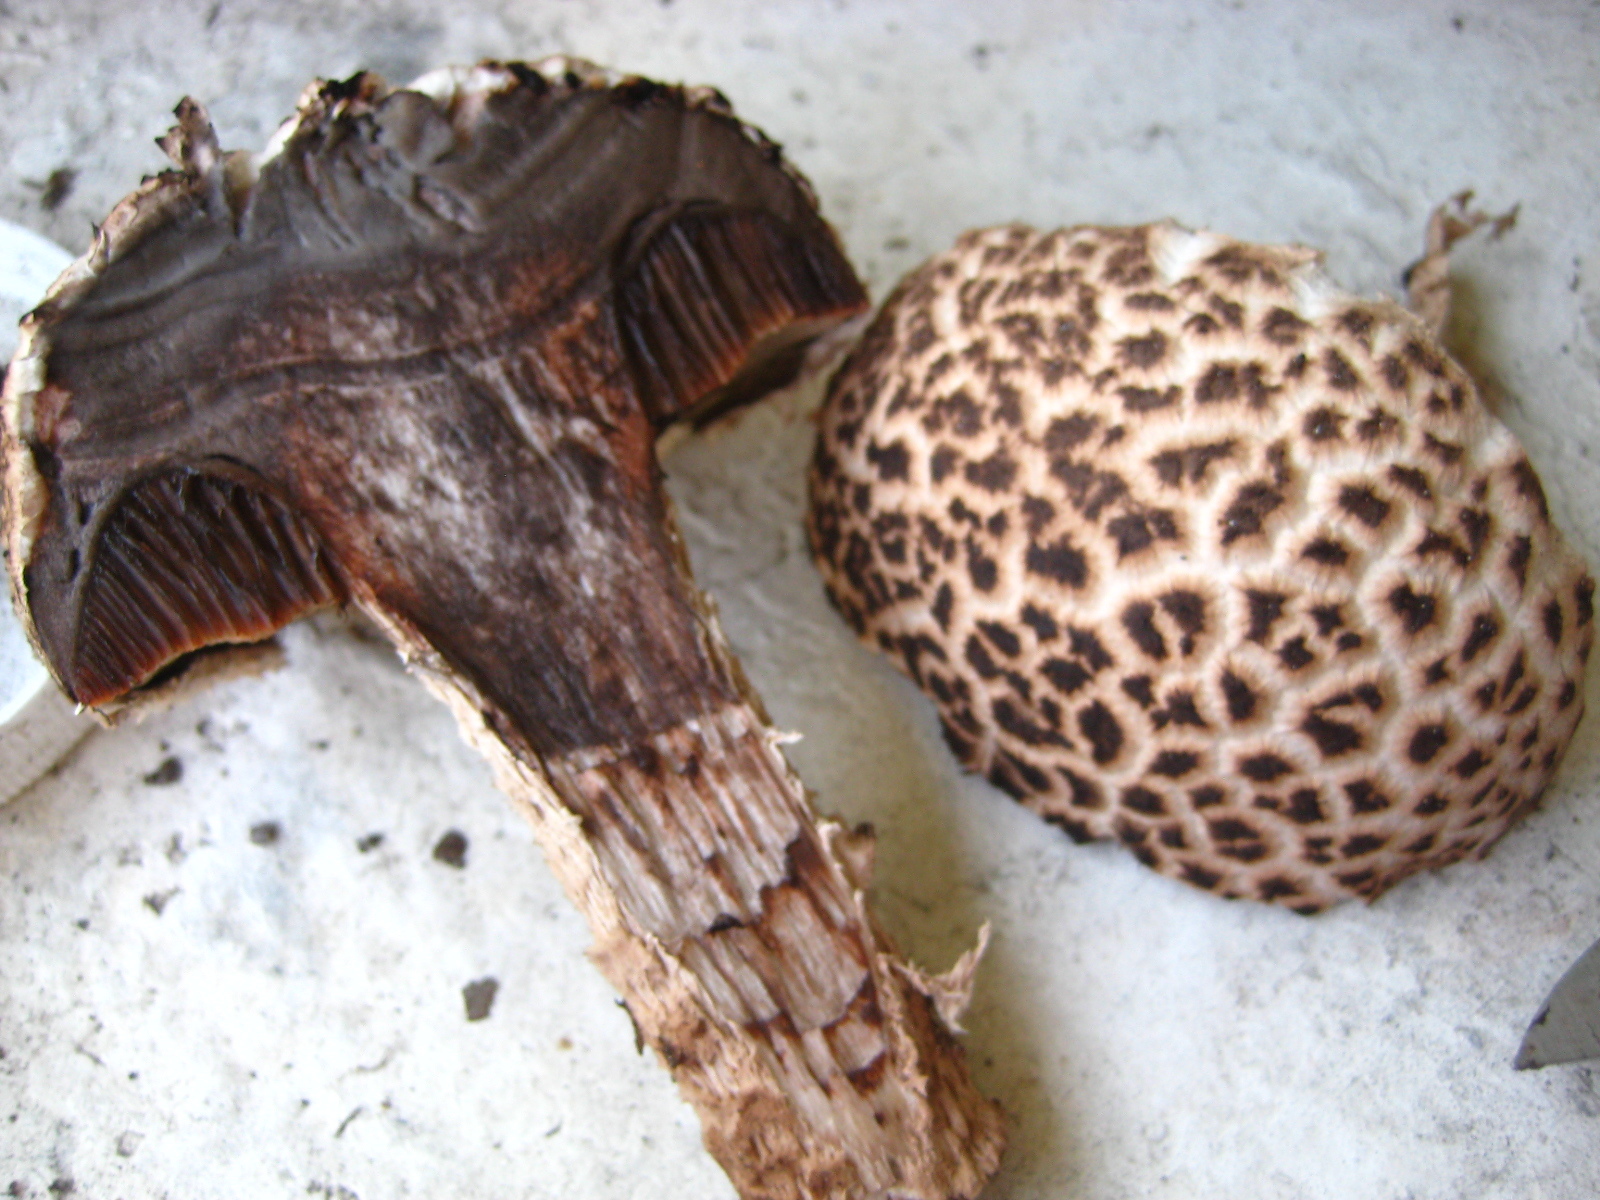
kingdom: Fungi
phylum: Basidiomycota
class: Agaricomycetes
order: Boletales
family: Boletaceae
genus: Strobilomyces
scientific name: Strobilomyces strobilaceus
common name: Old man of the woods
